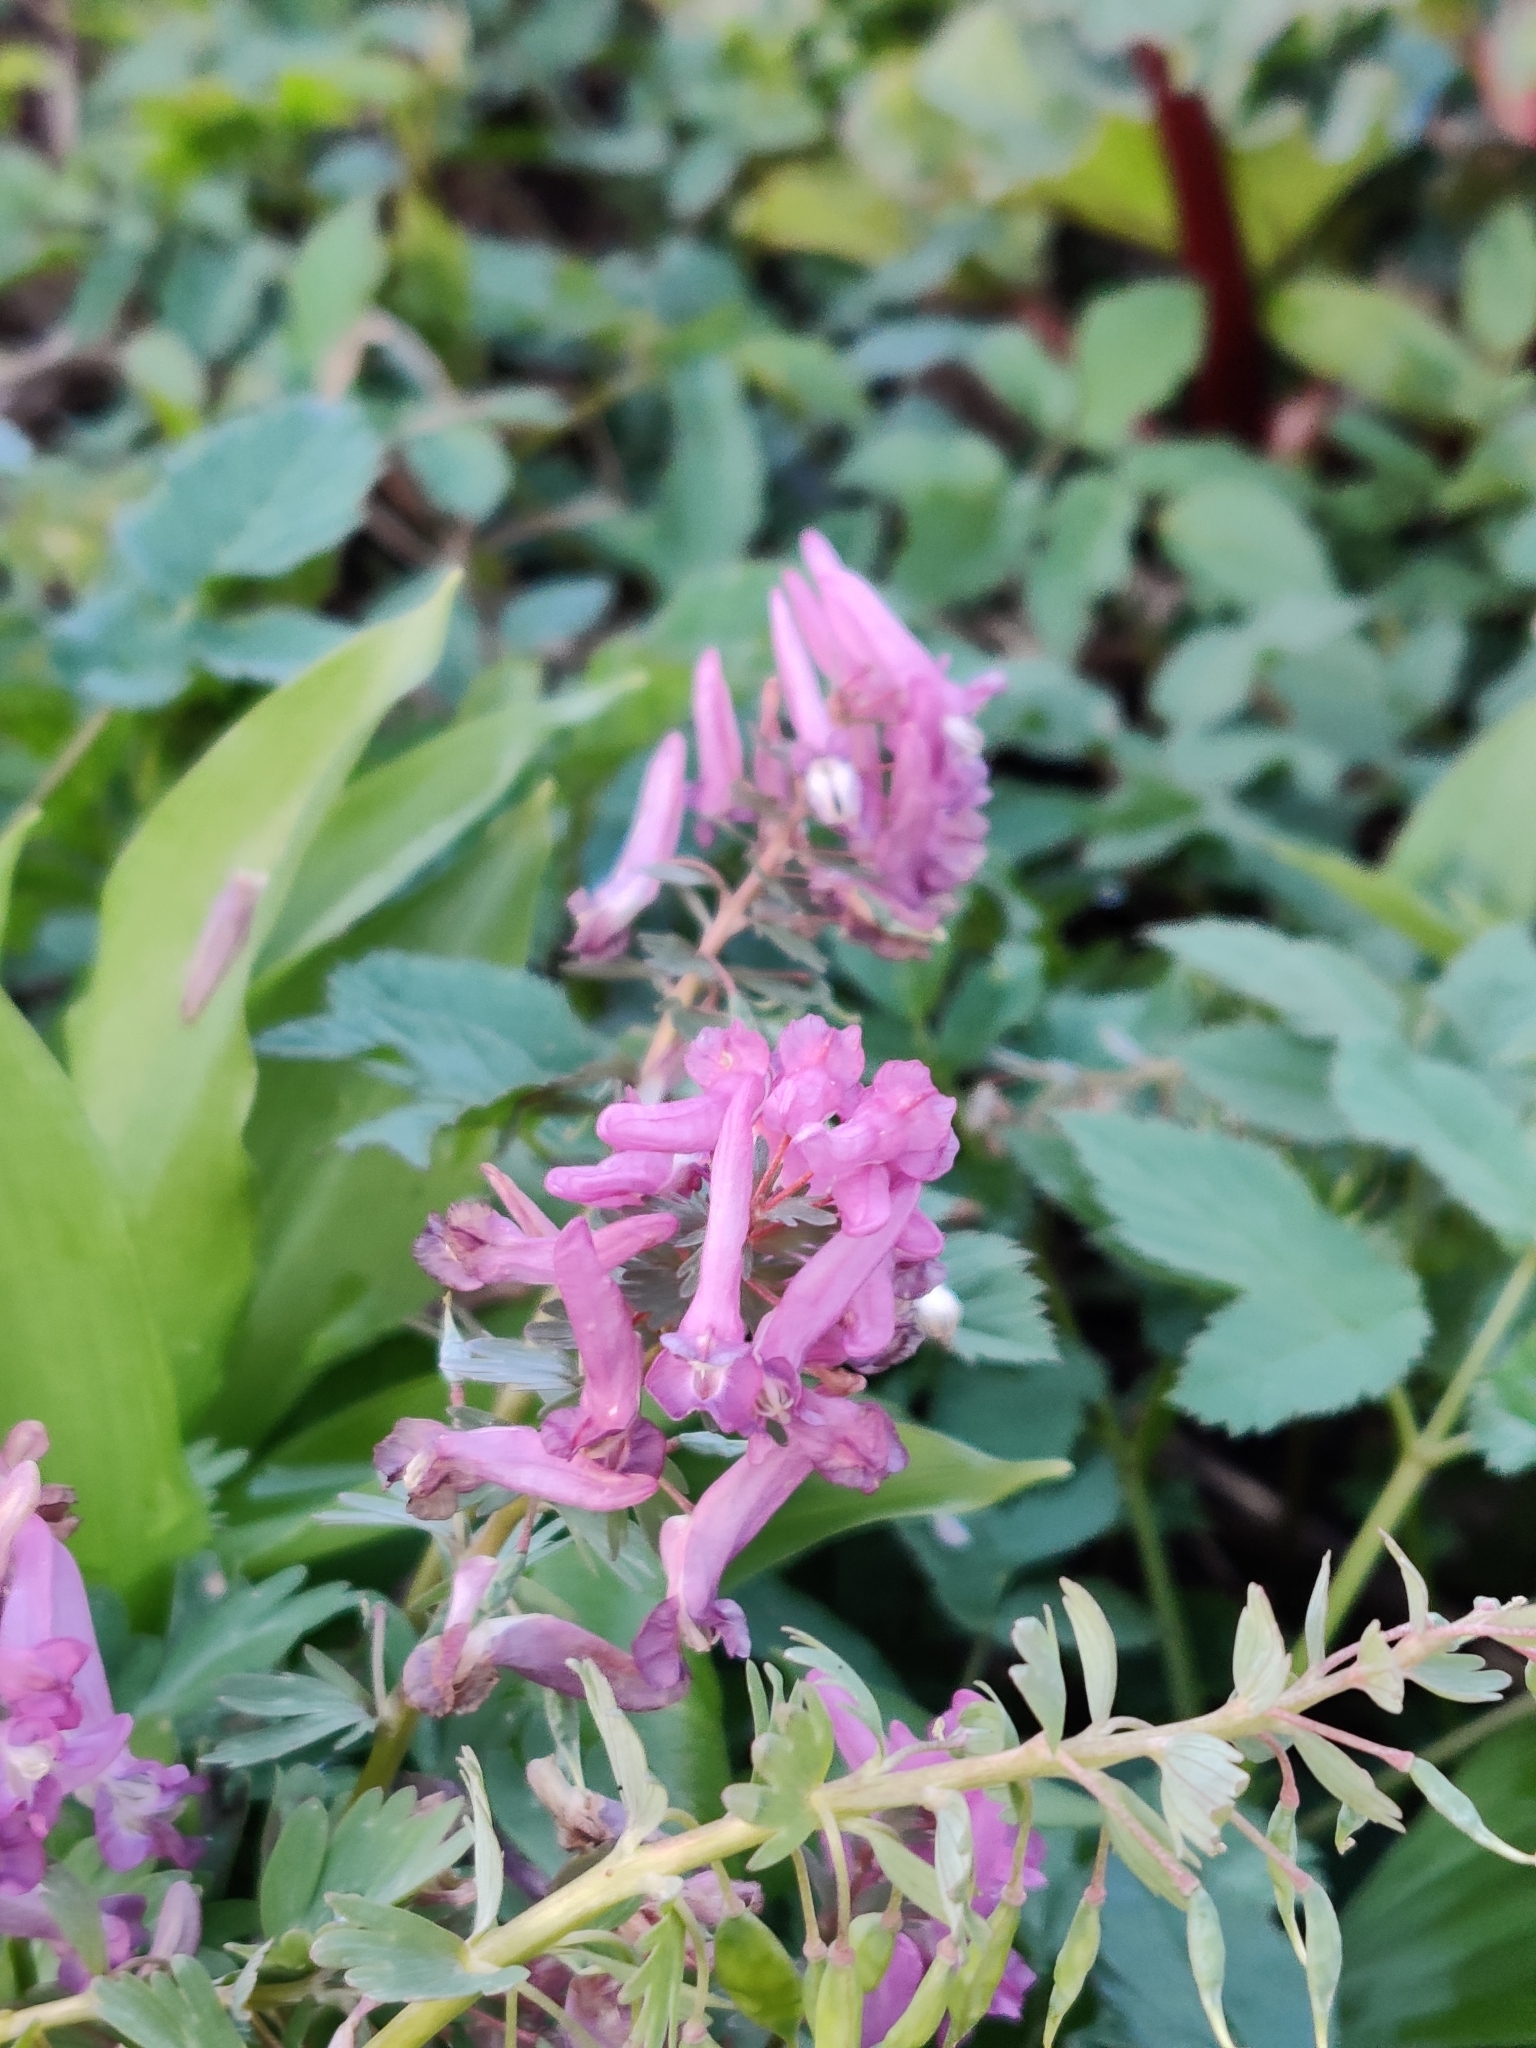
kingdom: Plantae
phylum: Tracheophyta
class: Magnoliopsida
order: Ranunculales
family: Papaveraceae
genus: Corydalis
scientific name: Corydalis solida
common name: Bird-in-a-bush
